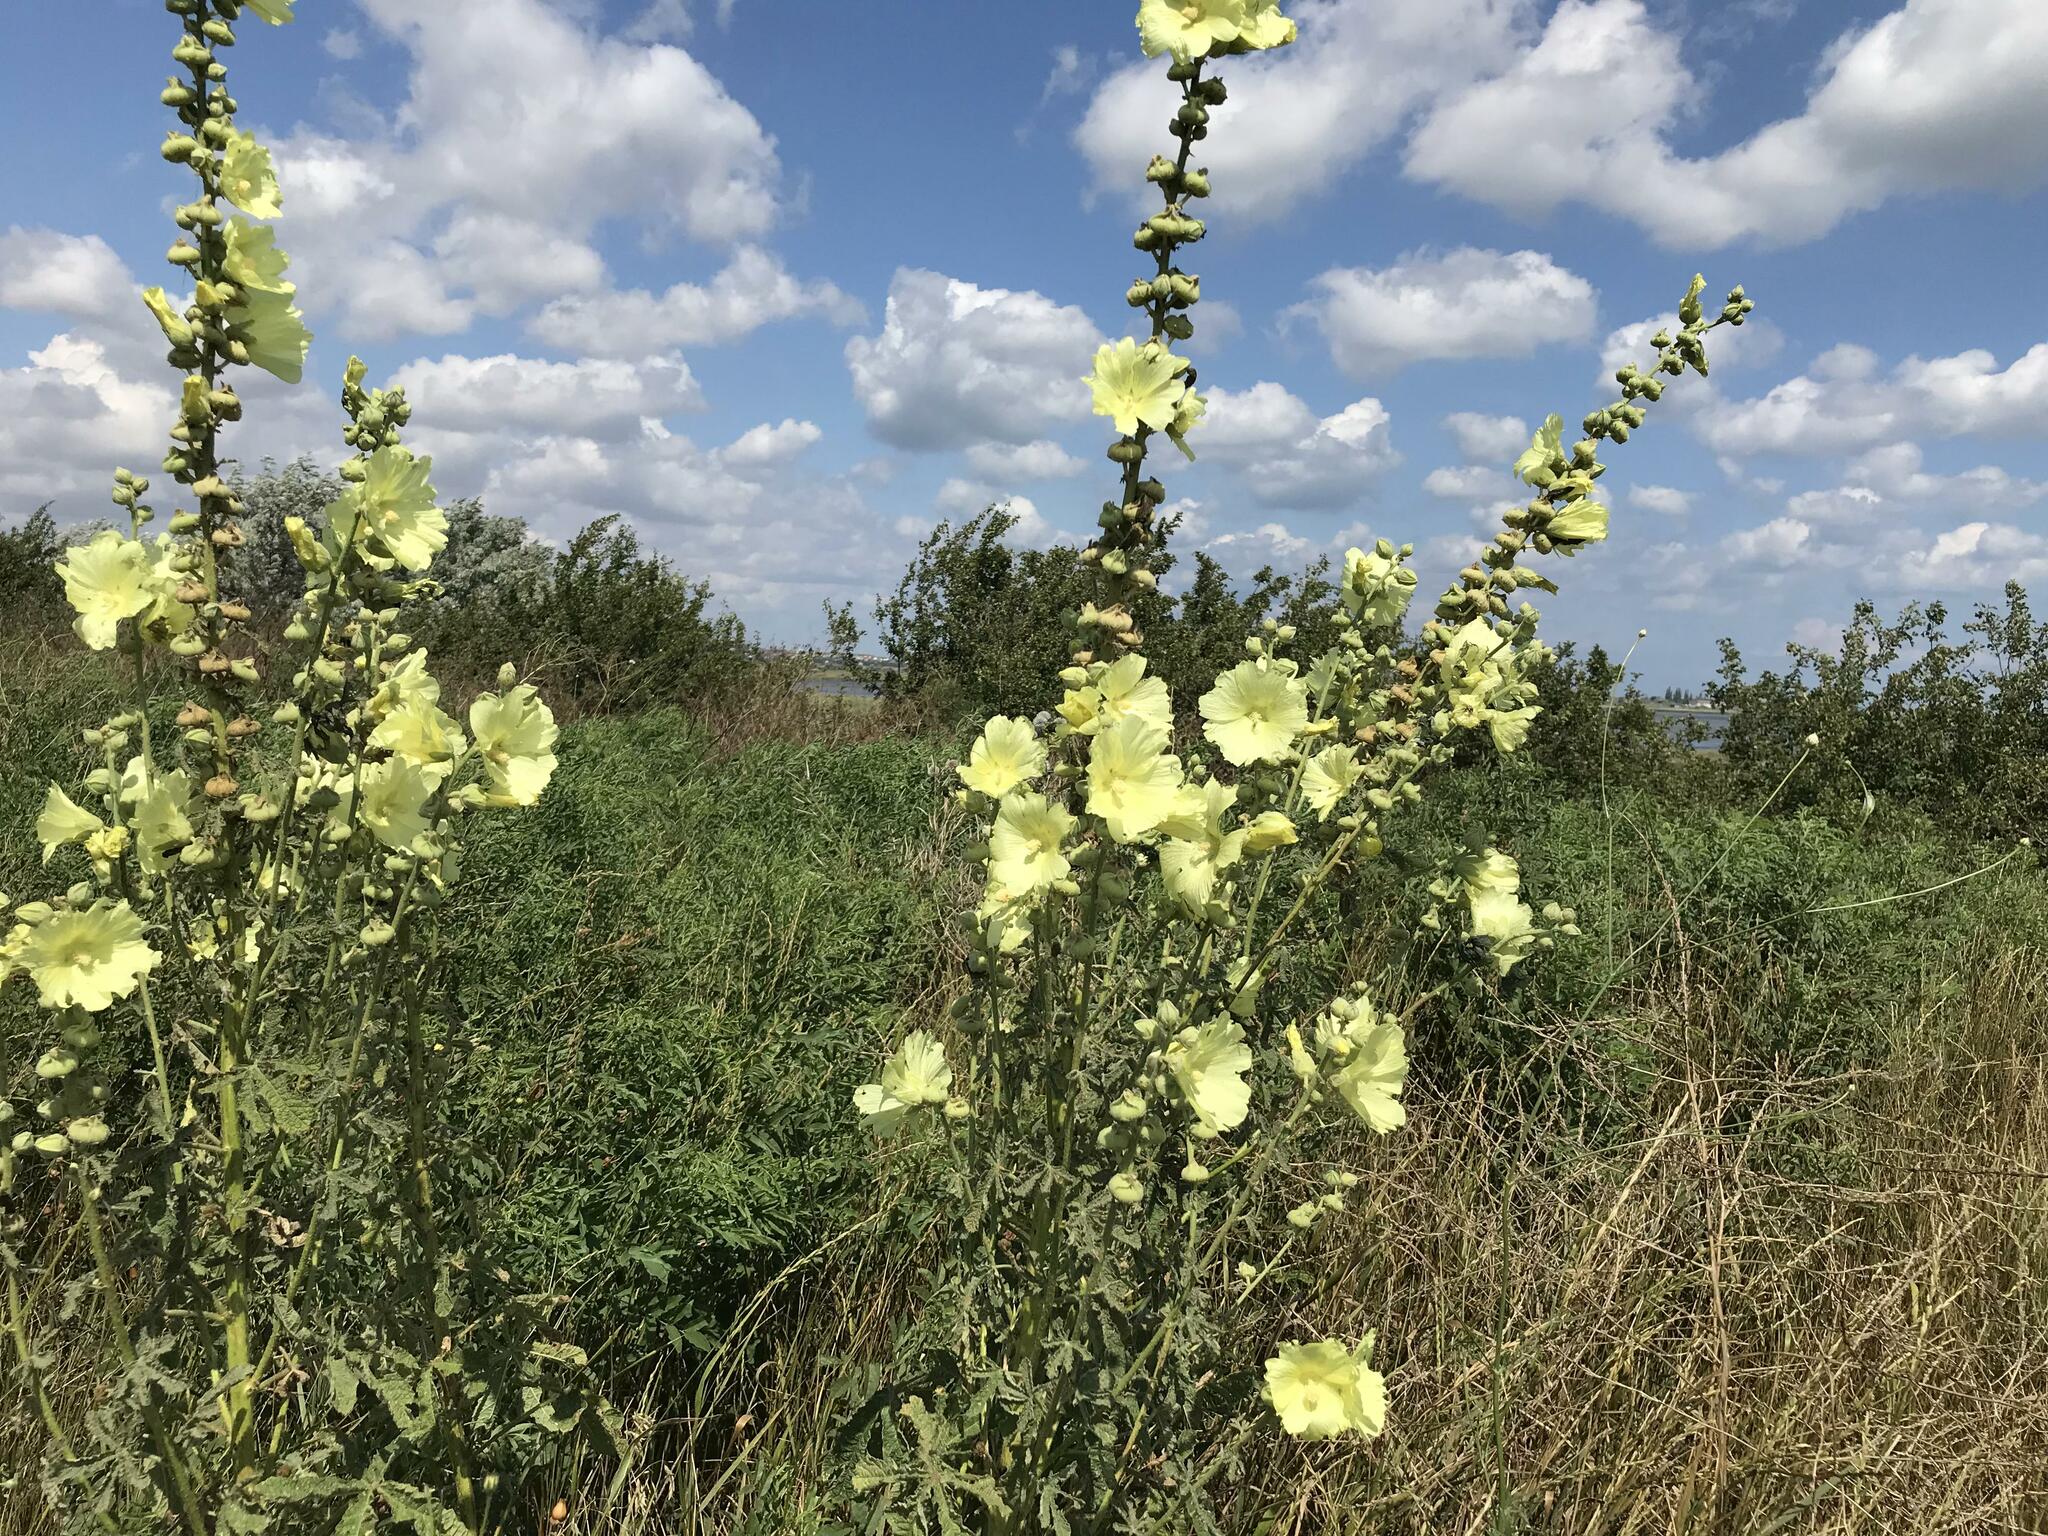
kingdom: Plantae
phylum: Tracheophyta
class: Magnoliopsida
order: Malvales
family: Malvaceae
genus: Alcea
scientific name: Alcea rugosa
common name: Russian hollyhock
